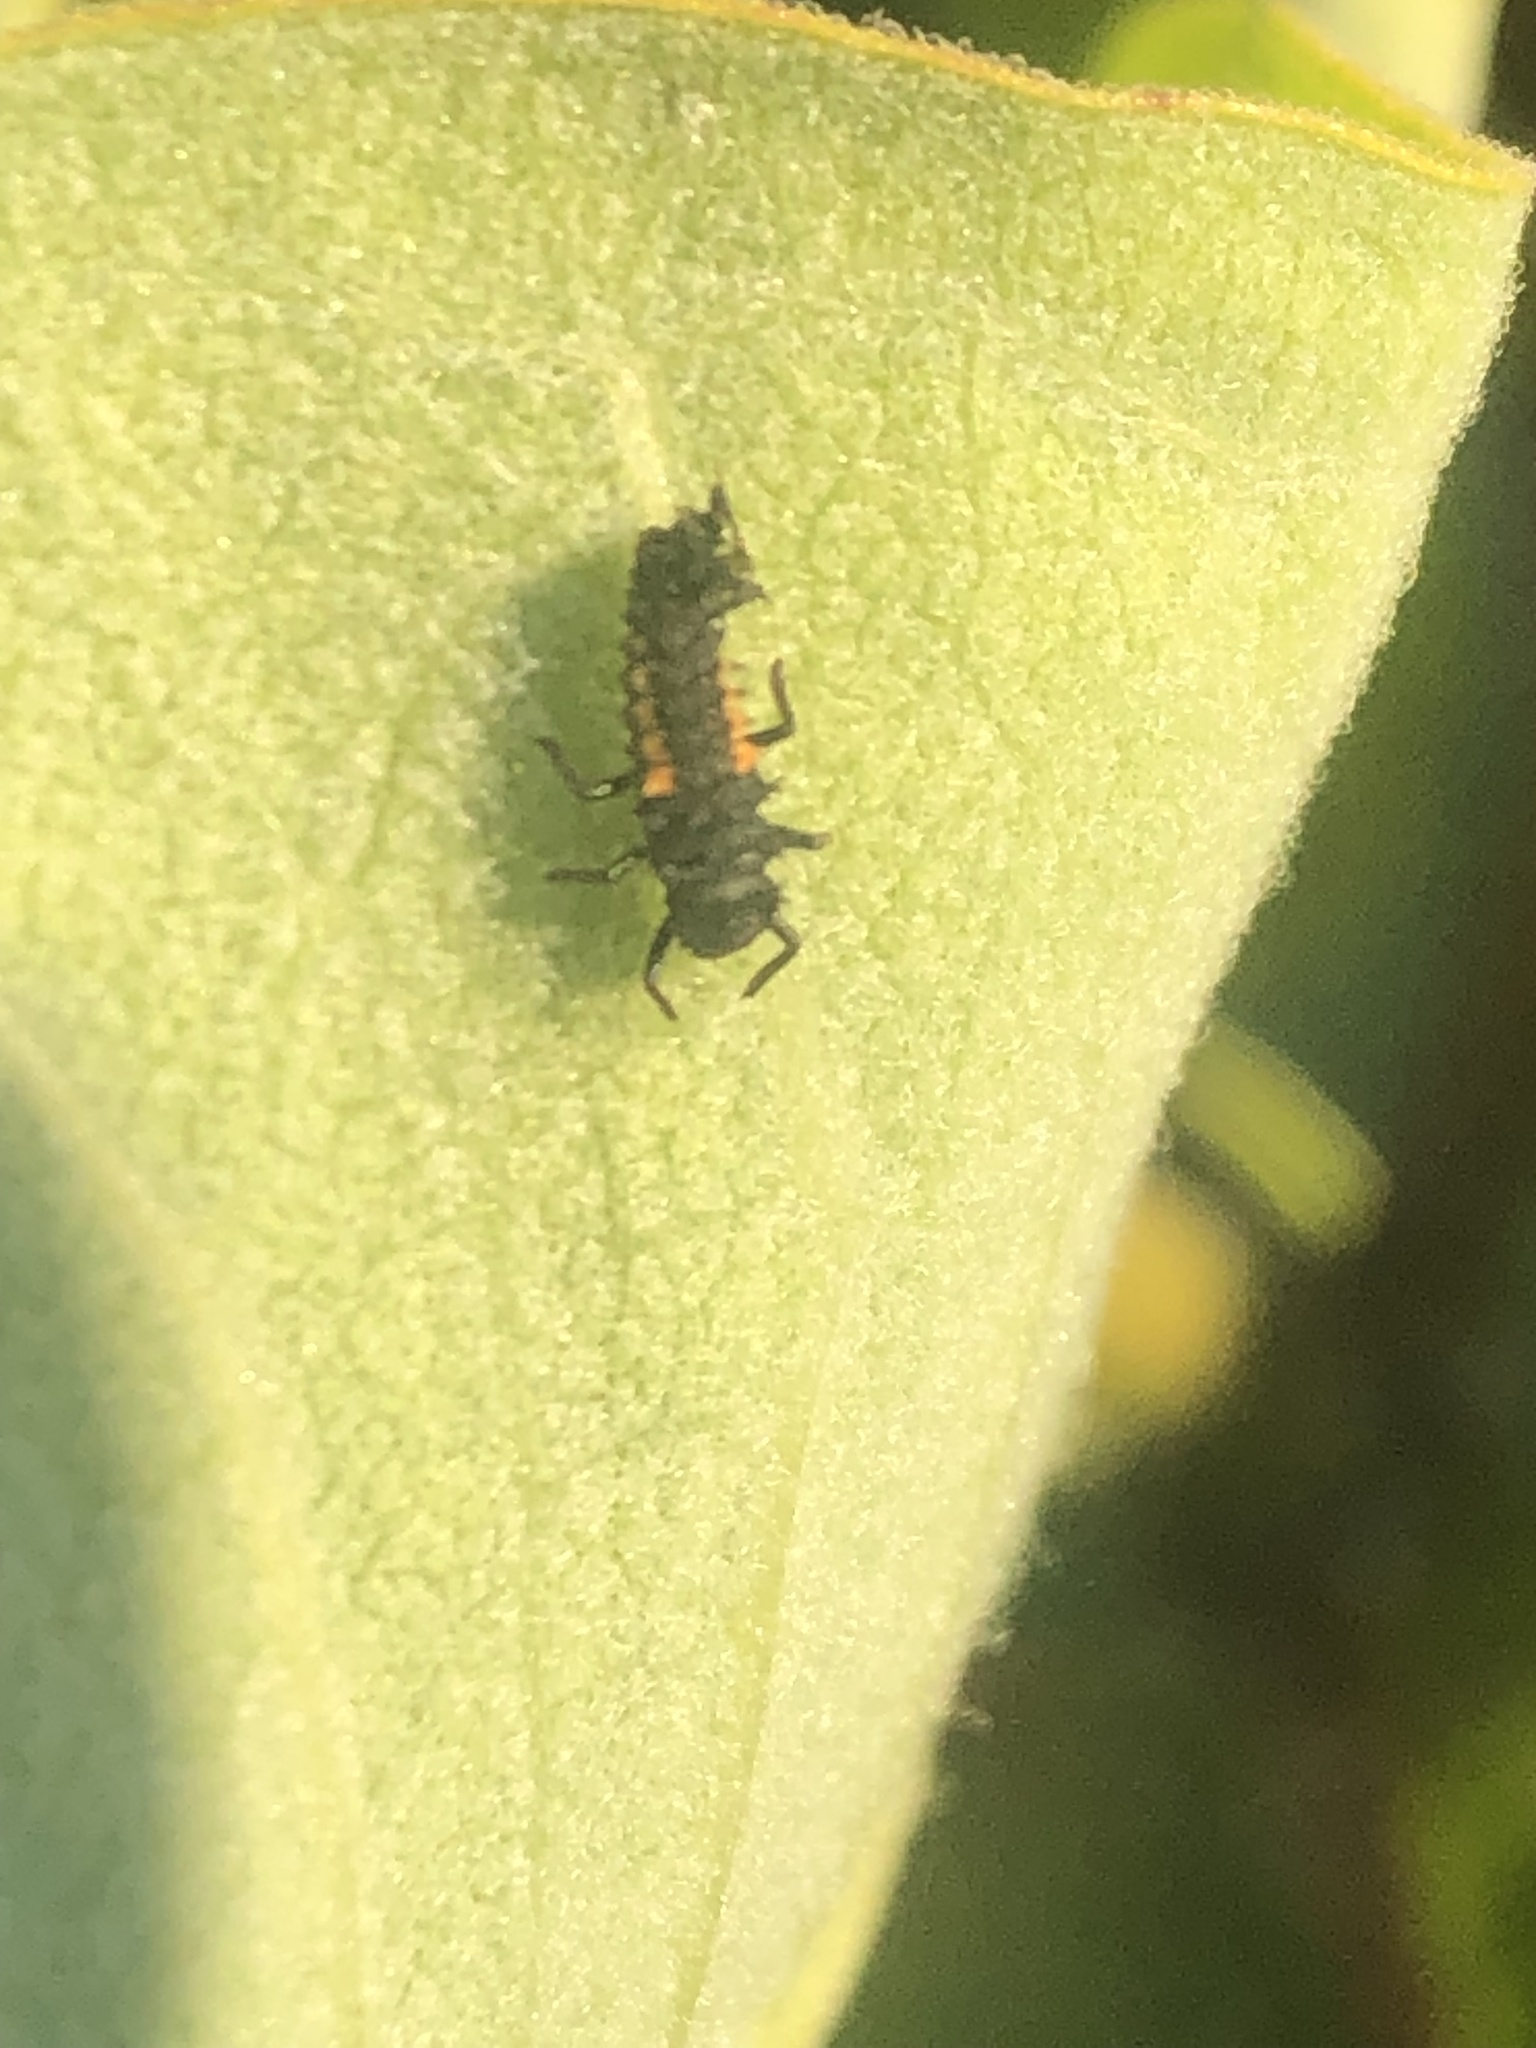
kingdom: Animalia
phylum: Arthropoda
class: Insecta
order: Coleoptera
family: Coccinellidae
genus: Harmonia
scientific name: Harmonia axyridis
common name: Harlequin ladybird
